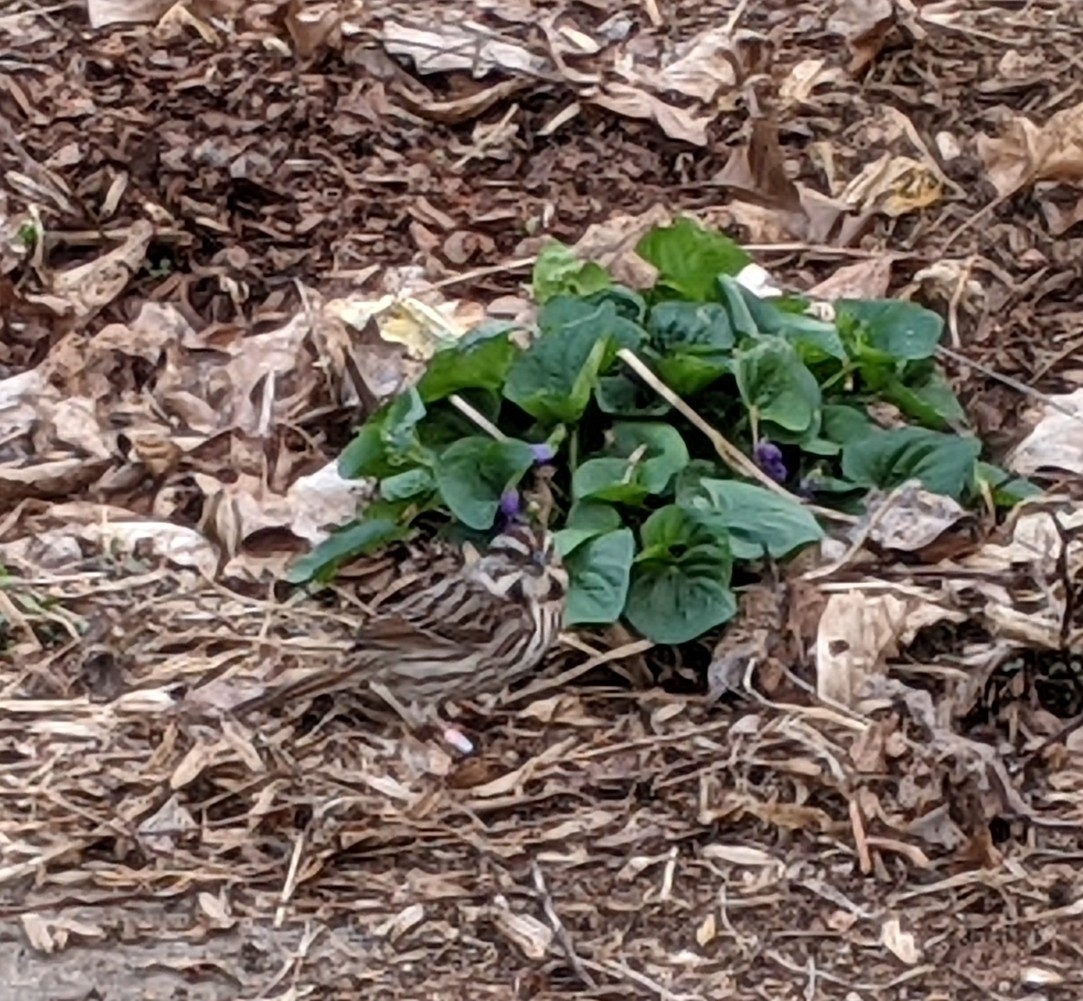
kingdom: Animalia
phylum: Chordata
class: Aves
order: Passeriformes
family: Passerellidae
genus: Melospiza
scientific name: Melospiza melodia
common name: Song sparrow
